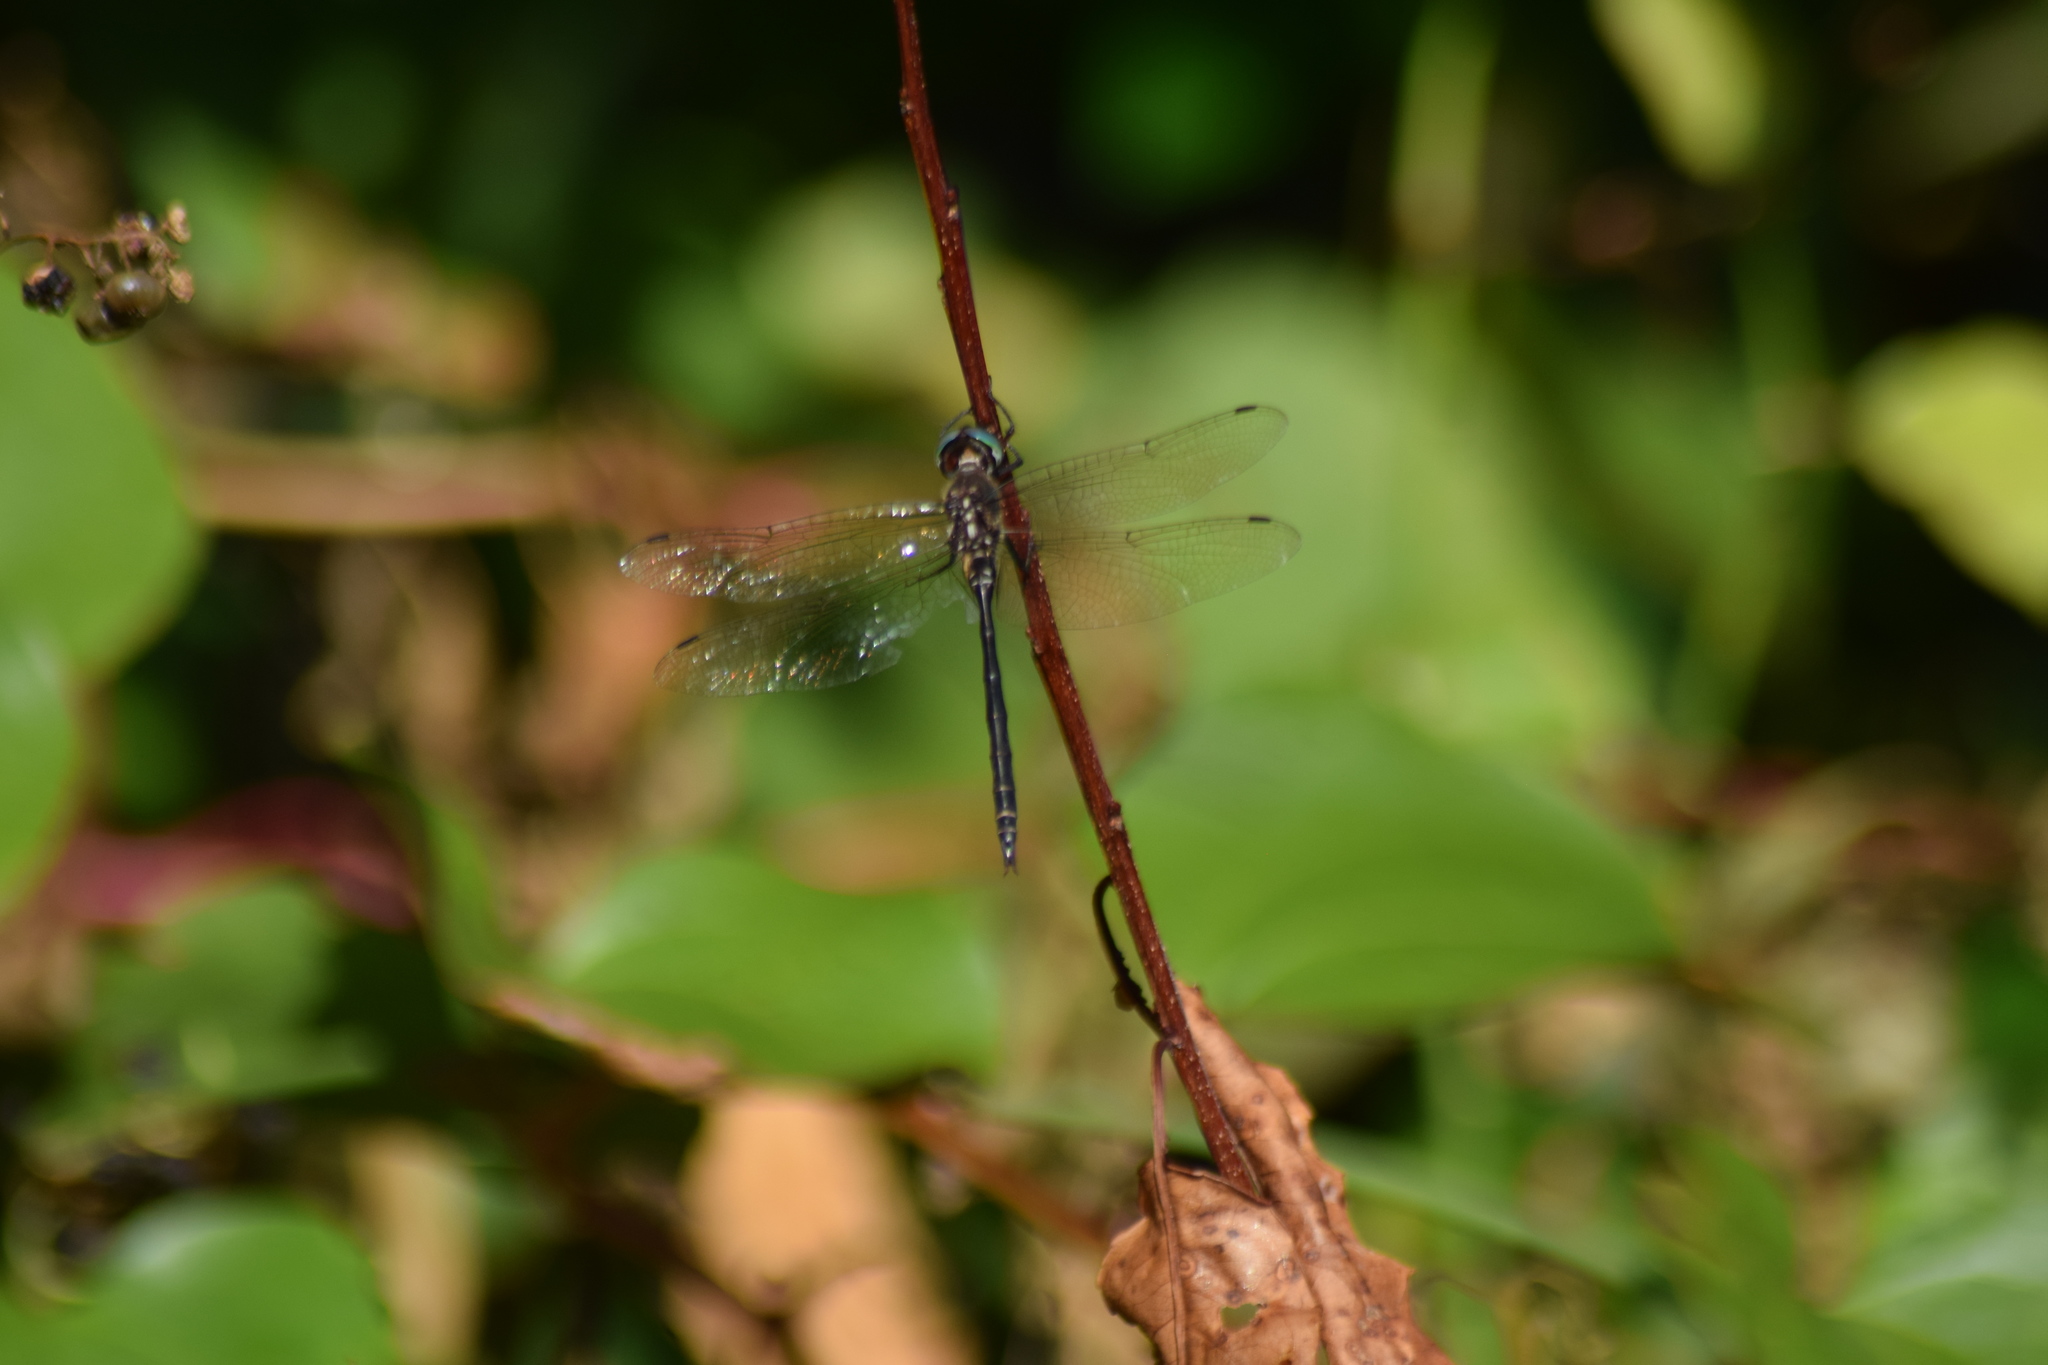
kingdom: Animalia
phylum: Arthropoda
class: Insecta
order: Odonata
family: Corduliidae
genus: Somatochlora
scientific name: Somatochlora filosa
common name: Fine-lined emerald
